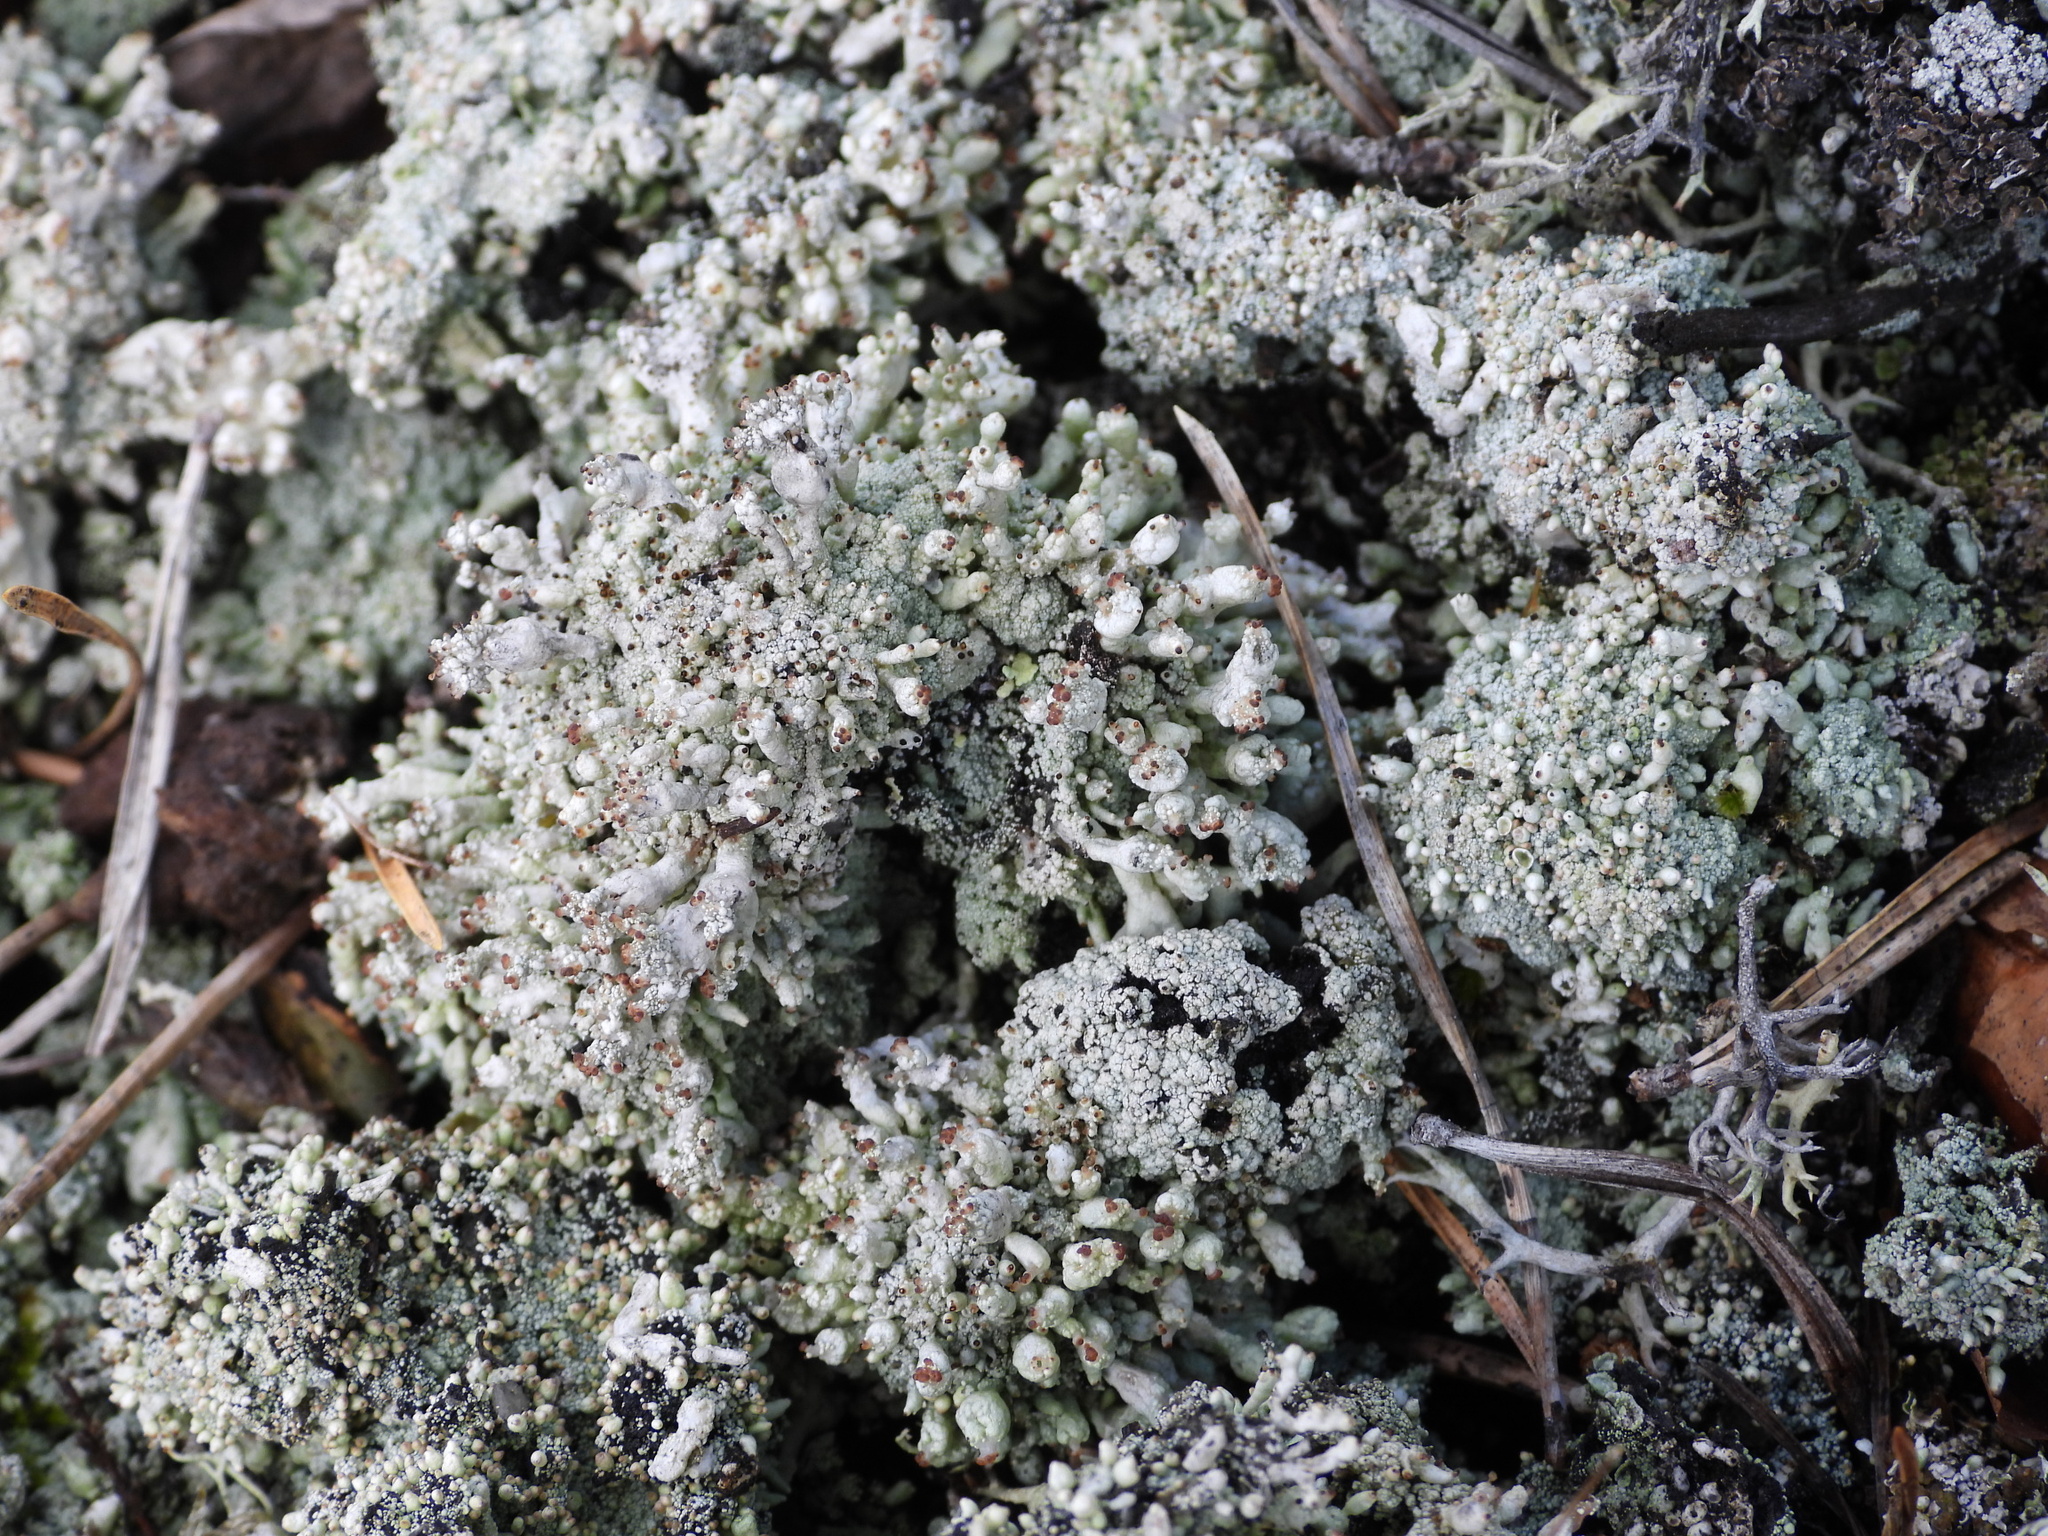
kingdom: Fungi
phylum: Ascomycota
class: Lecanoromycetes
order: Lecanorales
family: Cladoniaceae
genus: Pycnothelia
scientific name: Pycnothelia papillaria
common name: Nipple lichen
